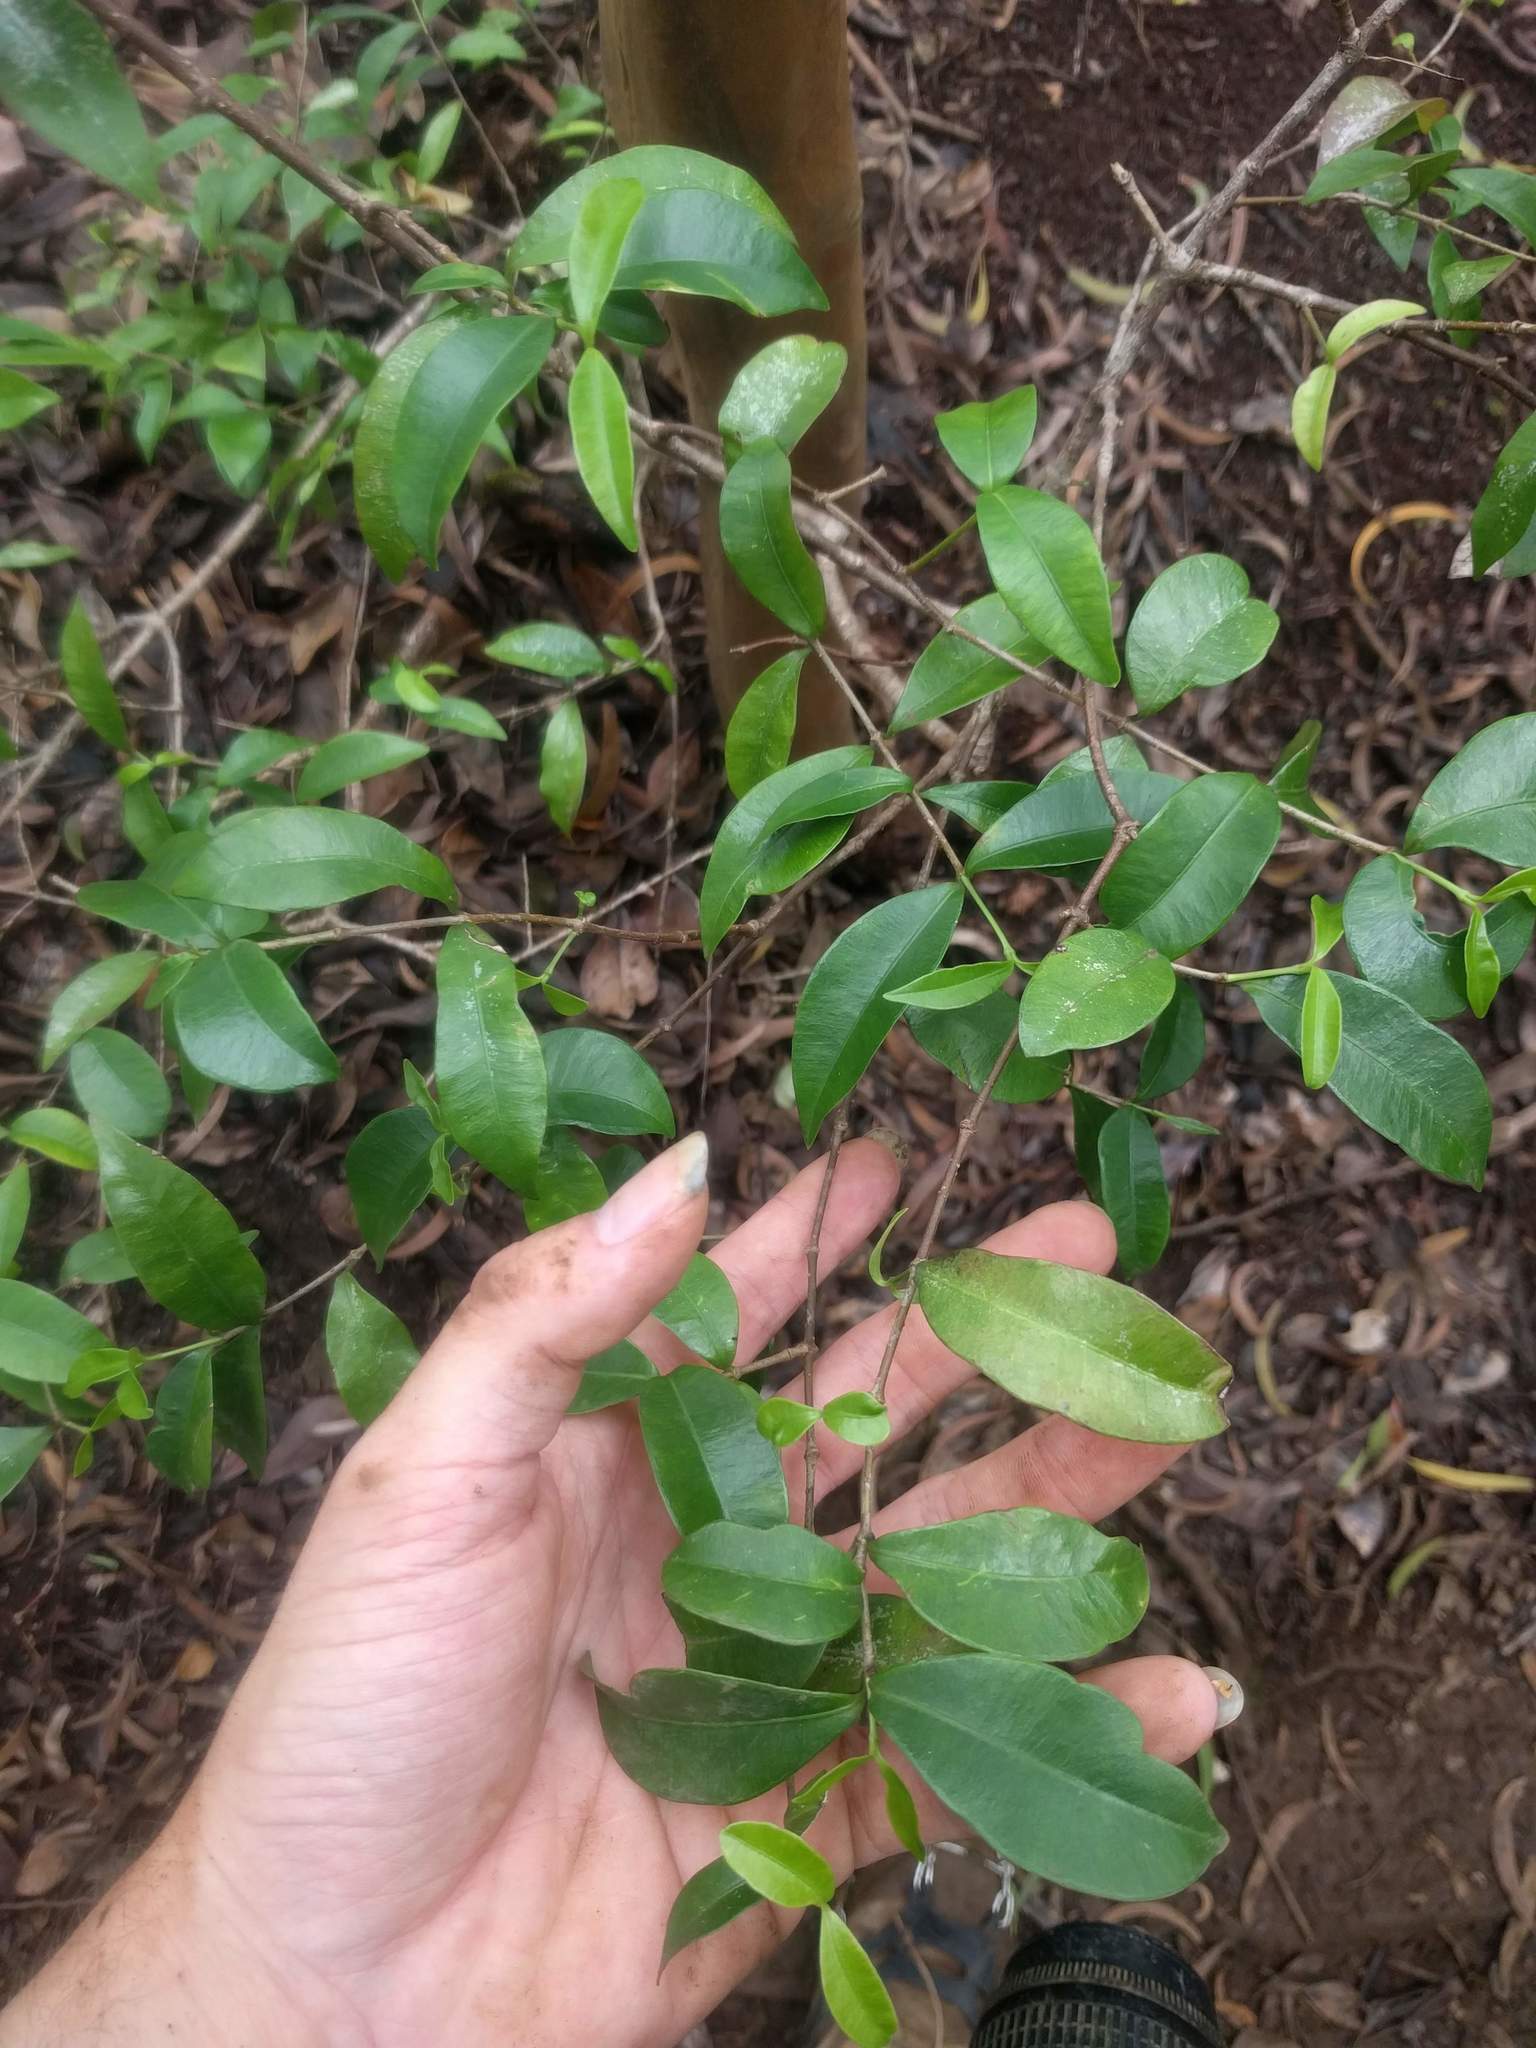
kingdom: Plantae
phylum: Tracheophyta
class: Magnoliopsida
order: Gentianales
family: Apocynaceae
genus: Alyxia
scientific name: Alyxia stellata
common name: Maile
